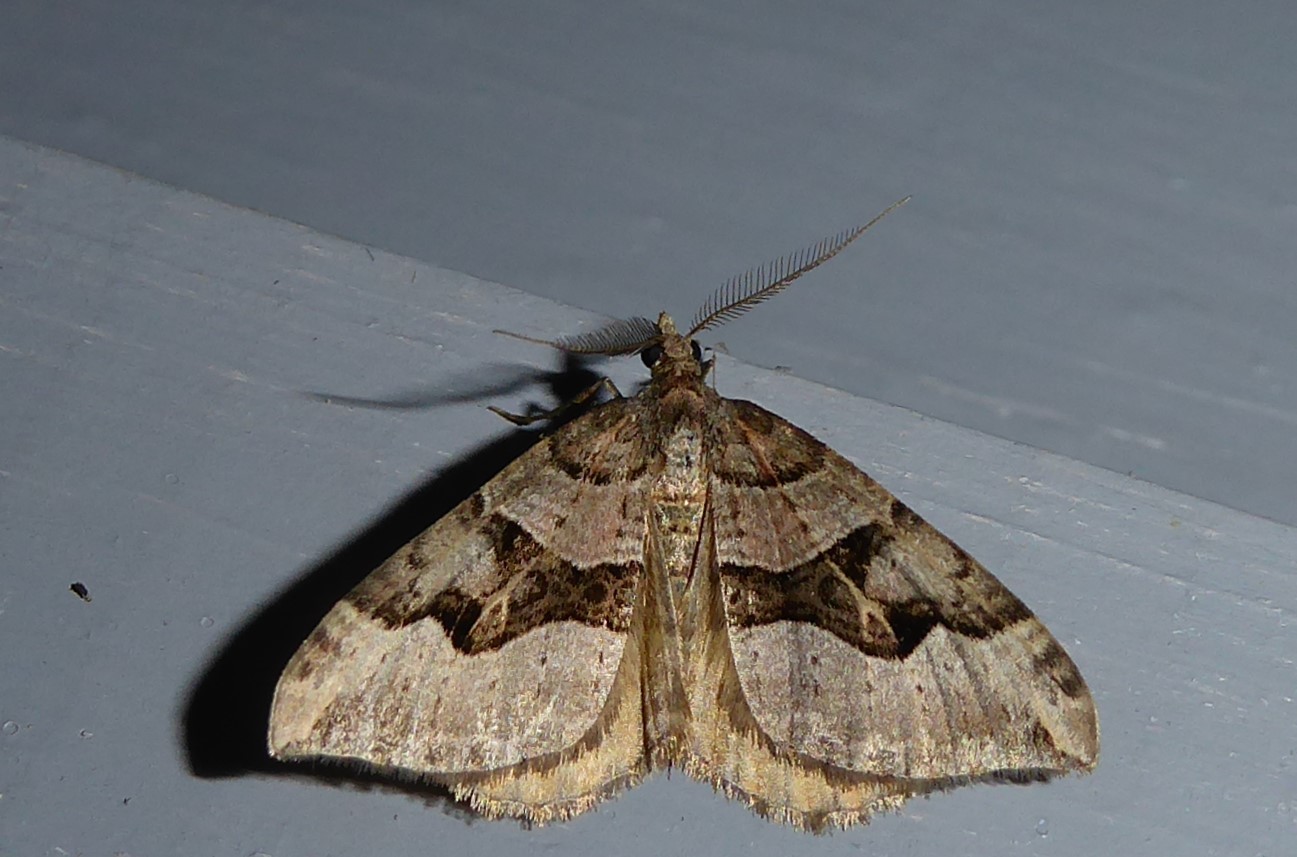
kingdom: Animalia
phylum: Arthropoda
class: Insecta
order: Lepidoptera
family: Geometridae
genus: Xanthorhoe
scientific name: Xanthorhoe semifissata
